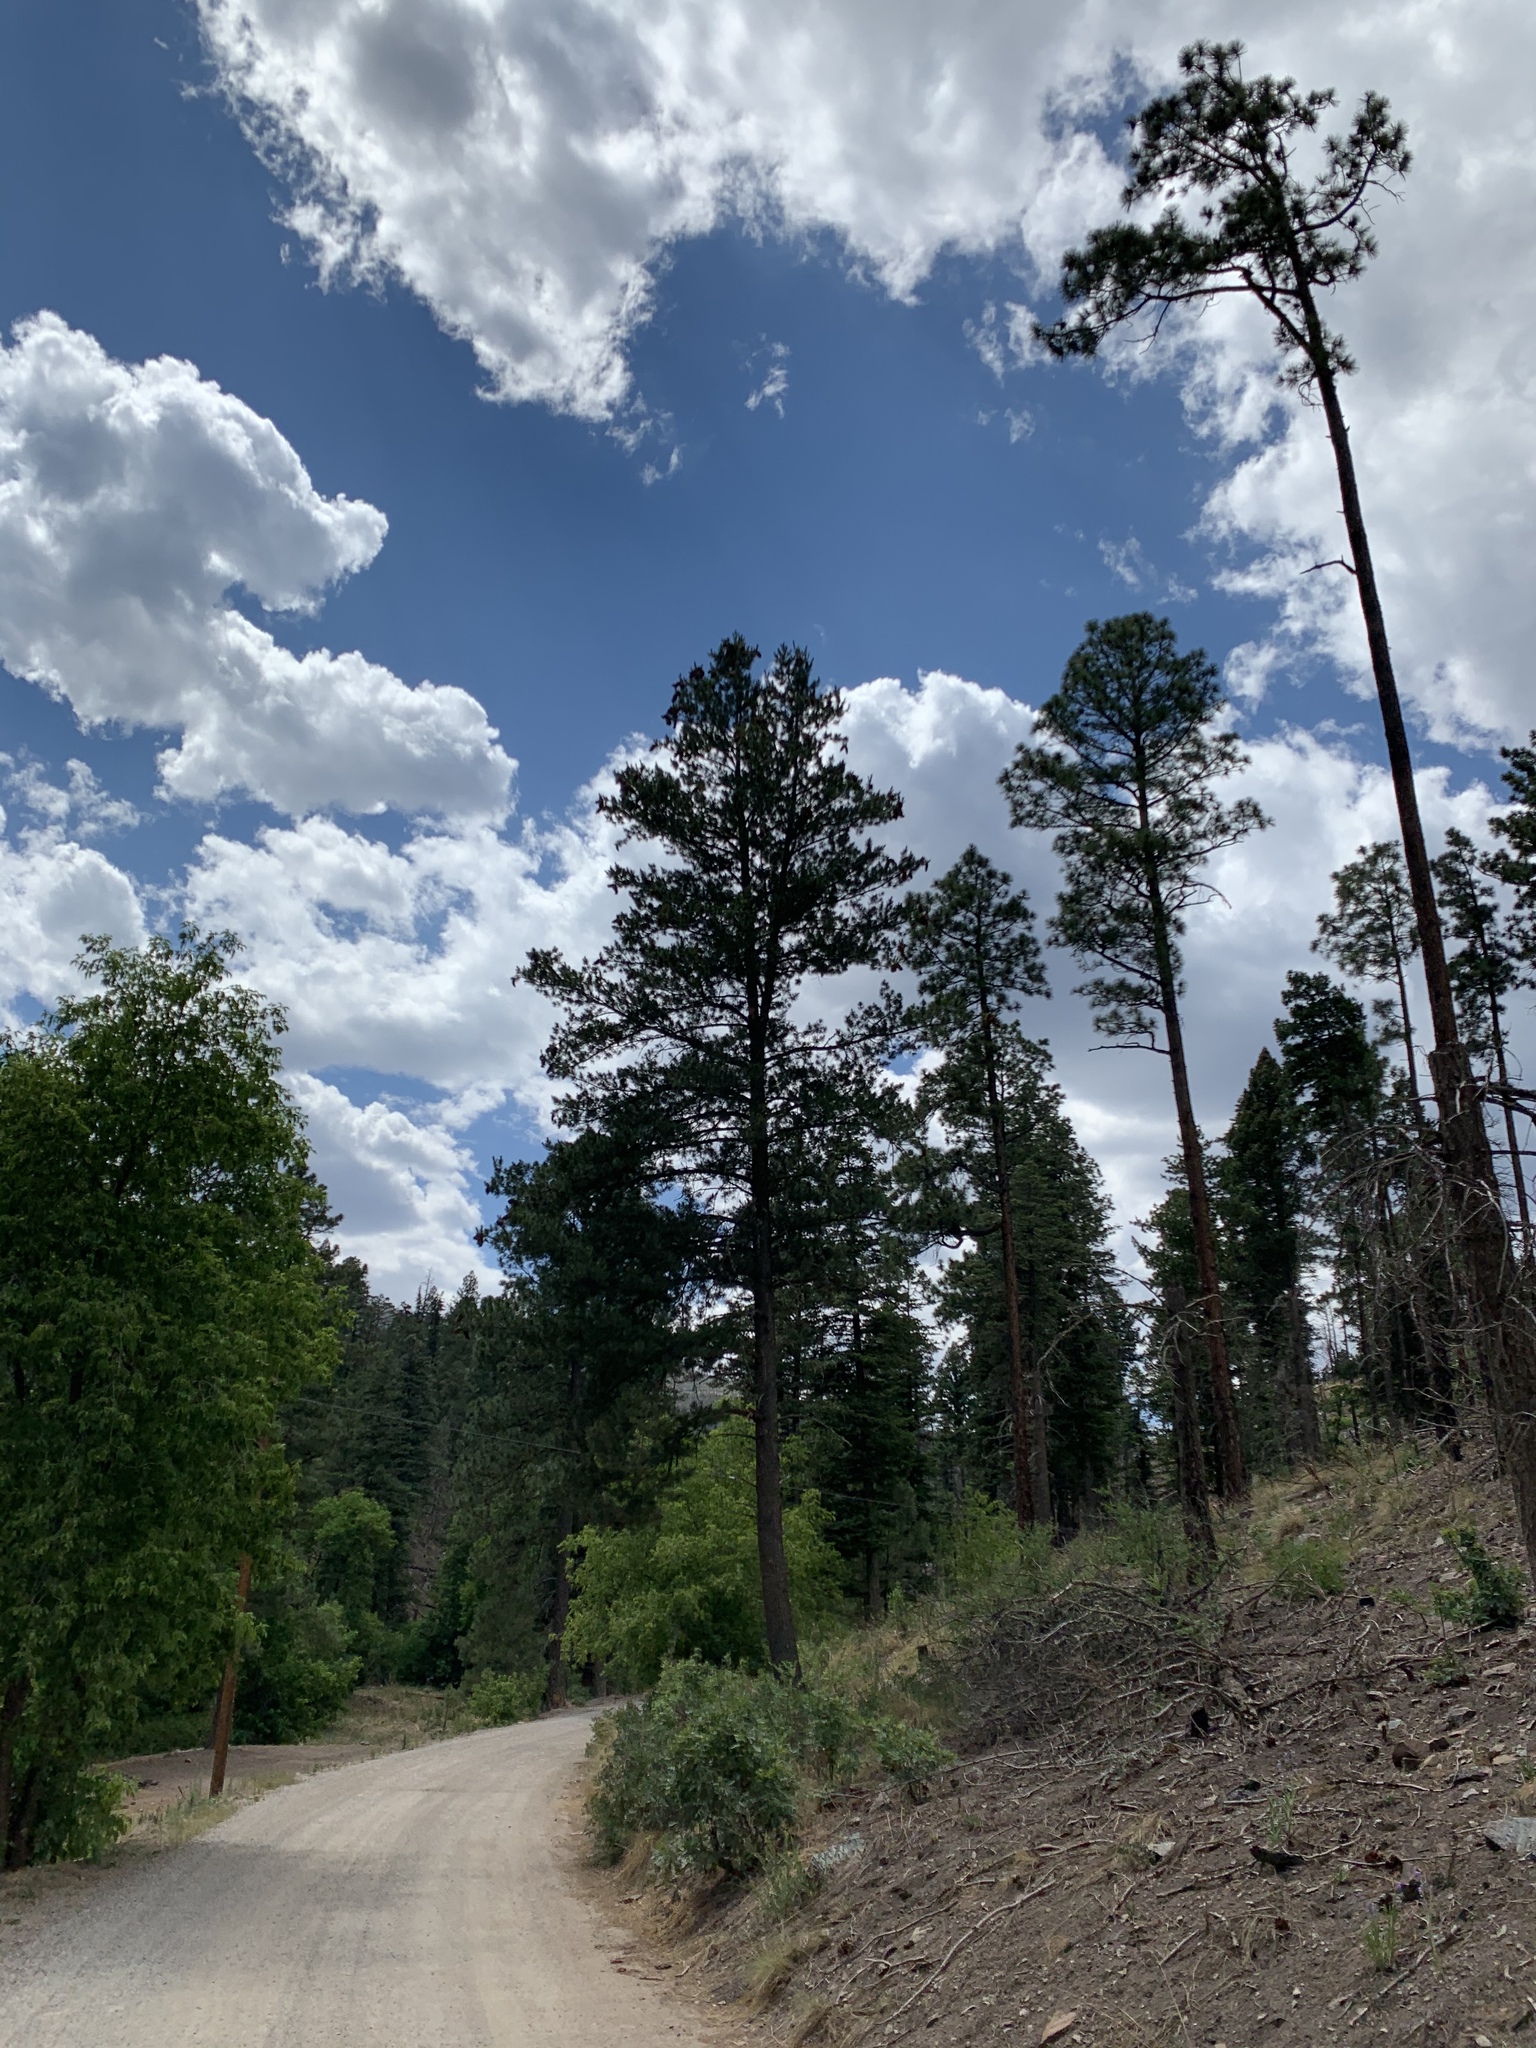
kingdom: Plantae
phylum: Tracheophyta
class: Pinopsida
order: Pinales
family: Pinaceae
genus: Pinus
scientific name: Pinus strobiformis
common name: Southwestern white pine
